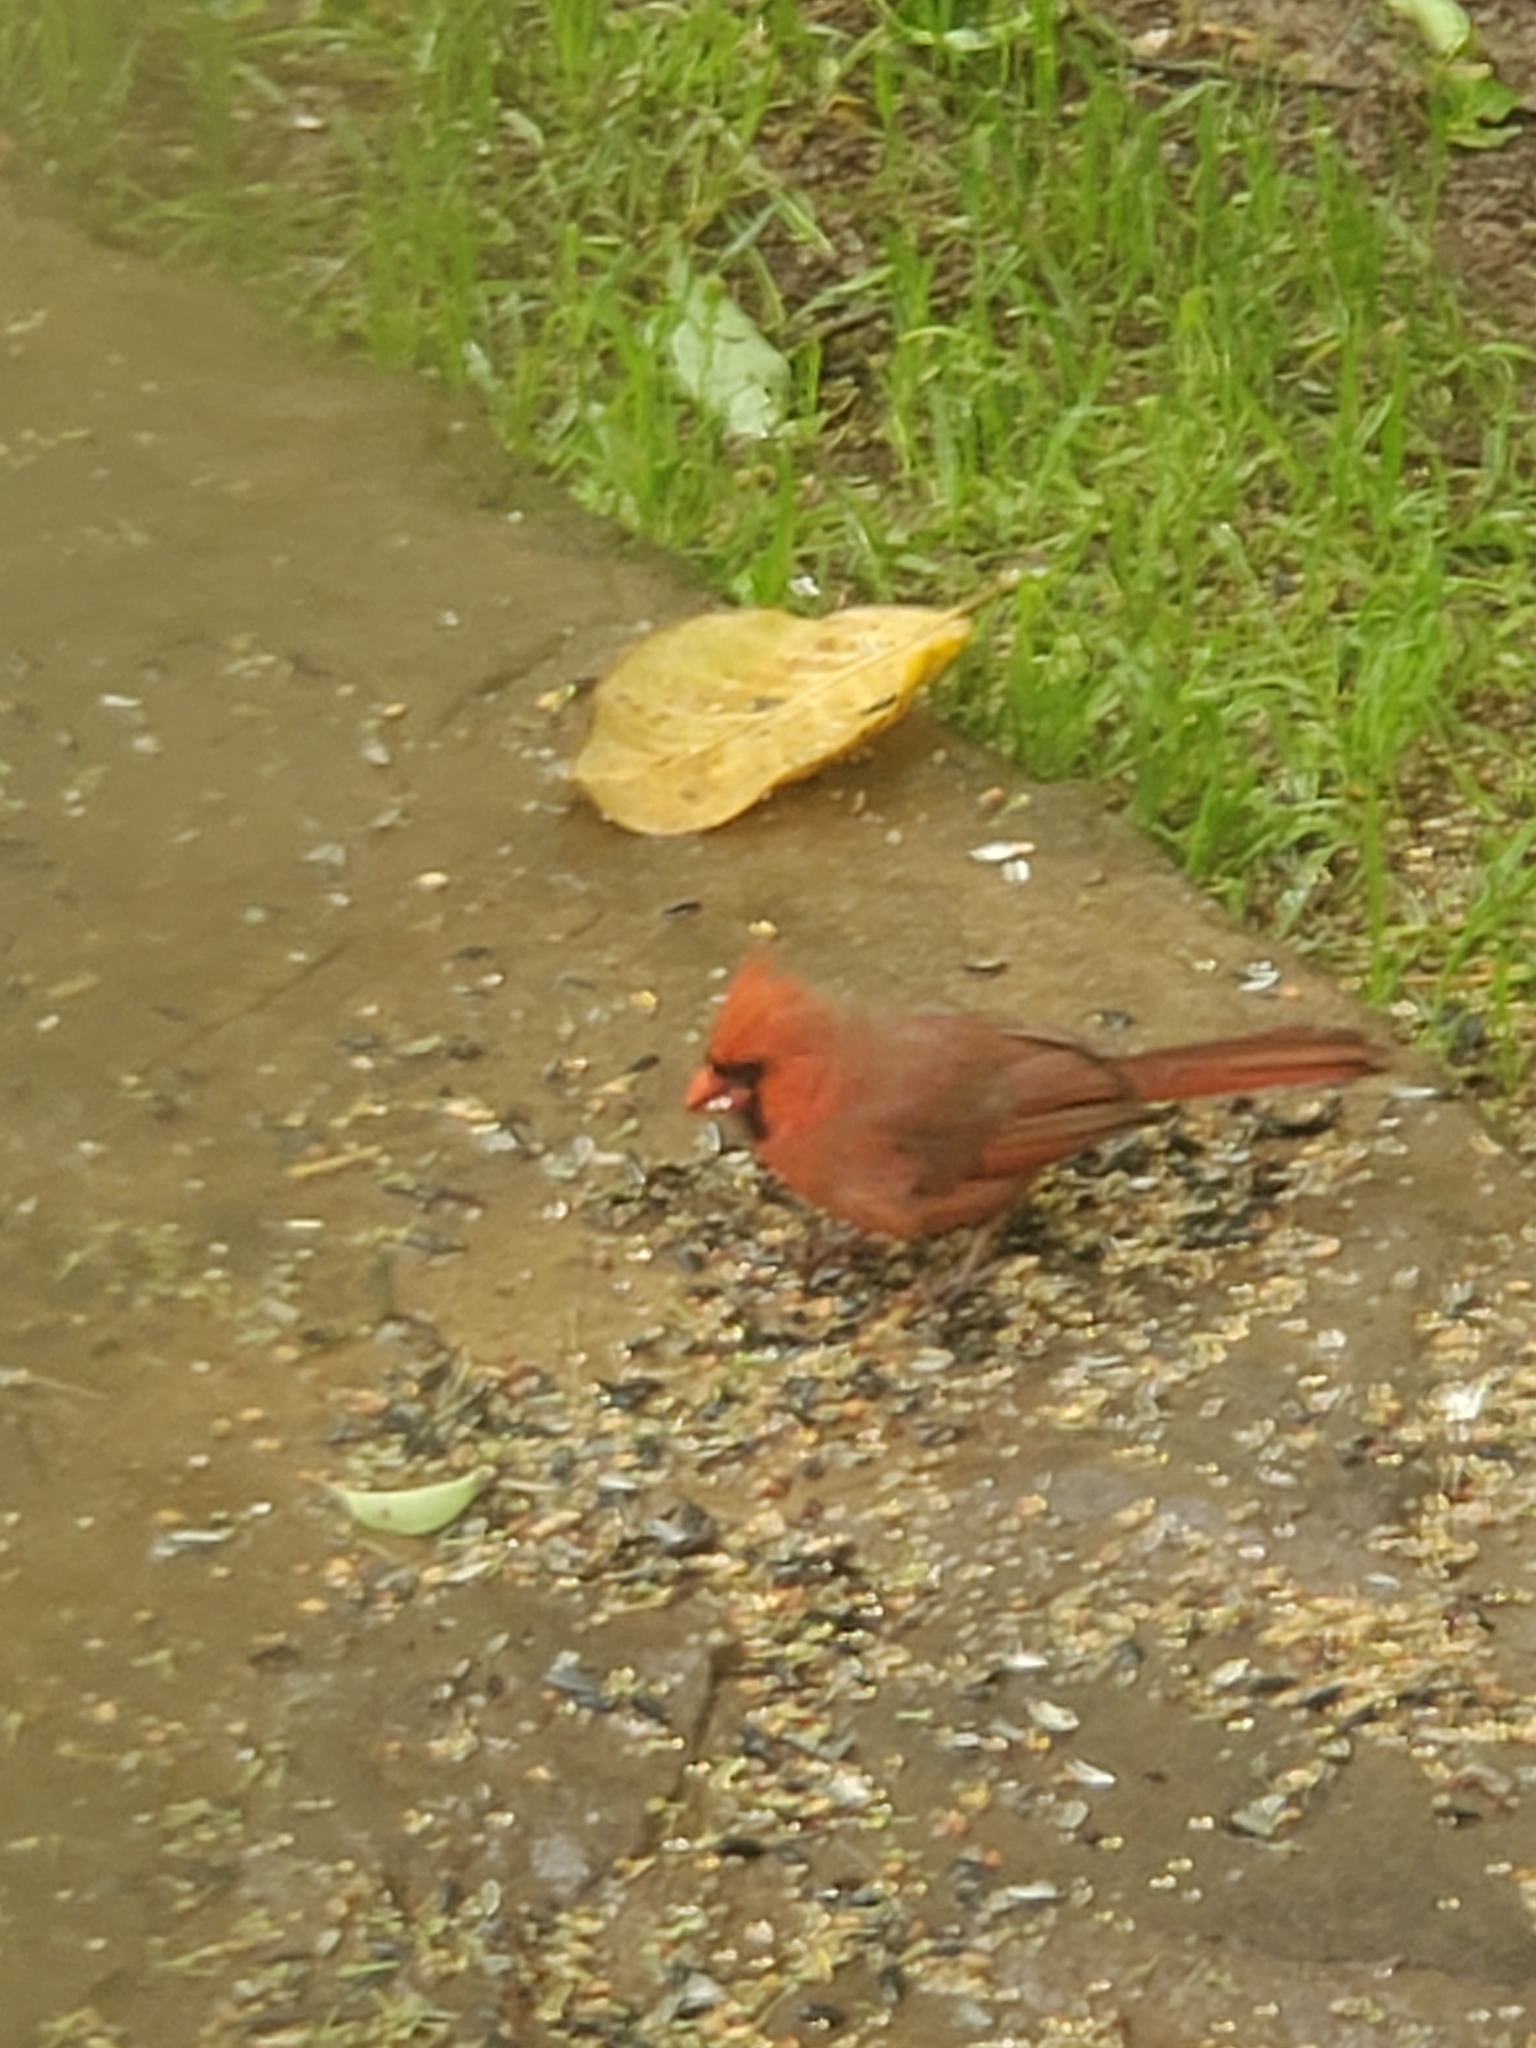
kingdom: Animalia
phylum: Chordata
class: Aves
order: Passeriformes
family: Cardinalidae
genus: Cardinalis
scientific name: Cardinalis cardinalis
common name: Northern cardinal
